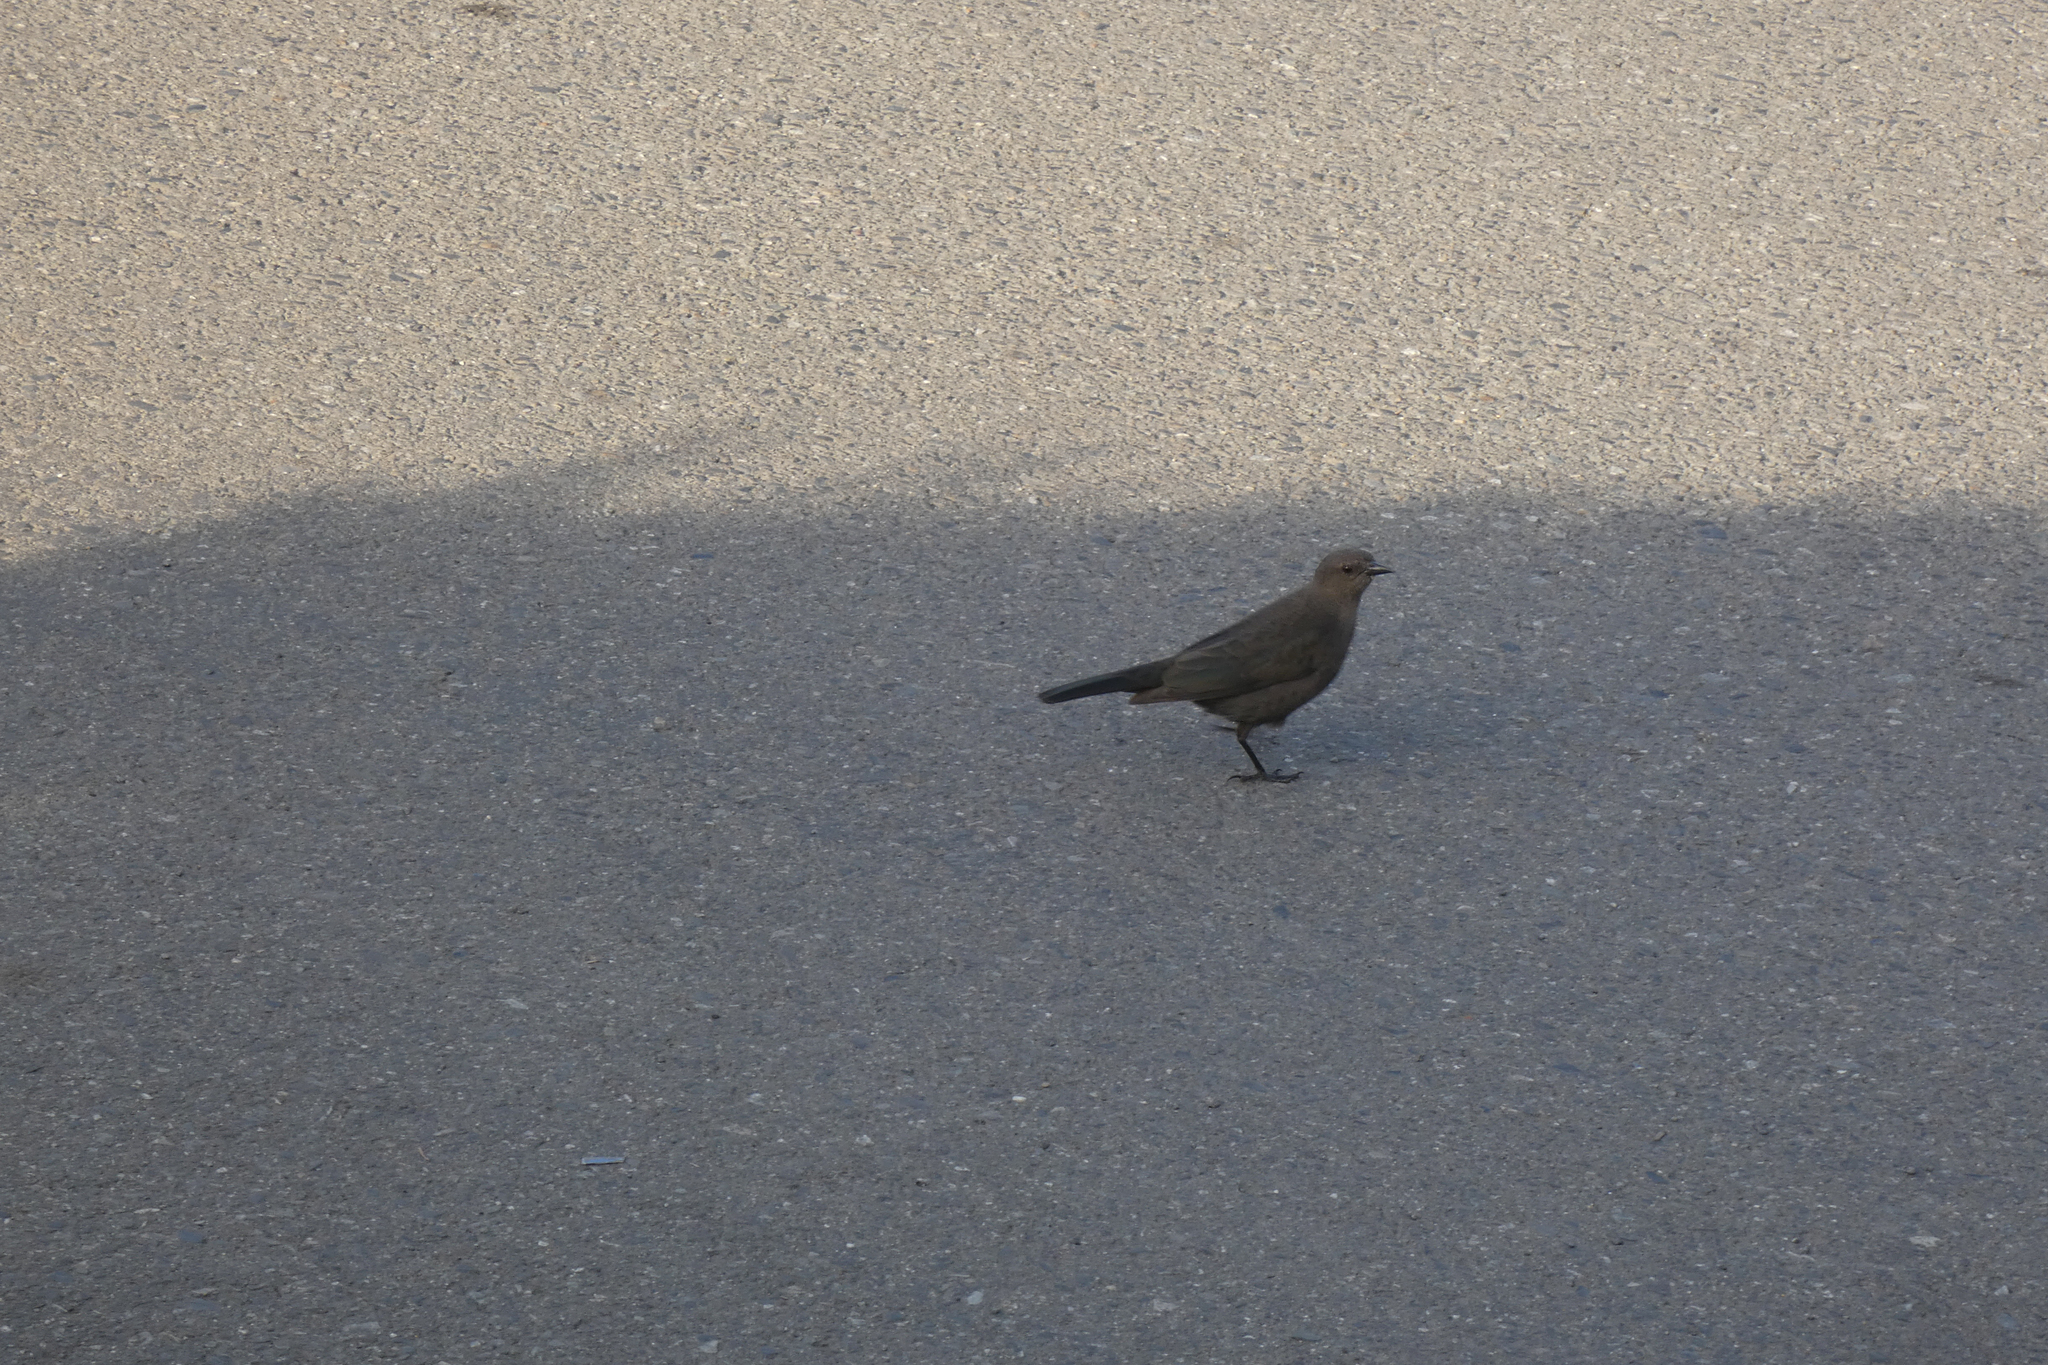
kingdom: Animalia
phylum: Chordata
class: Aves
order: Passeriformes
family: Icteridae
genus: Euphagus
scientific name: Euphagus cyanocephalus
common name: Brewer's blackbird
